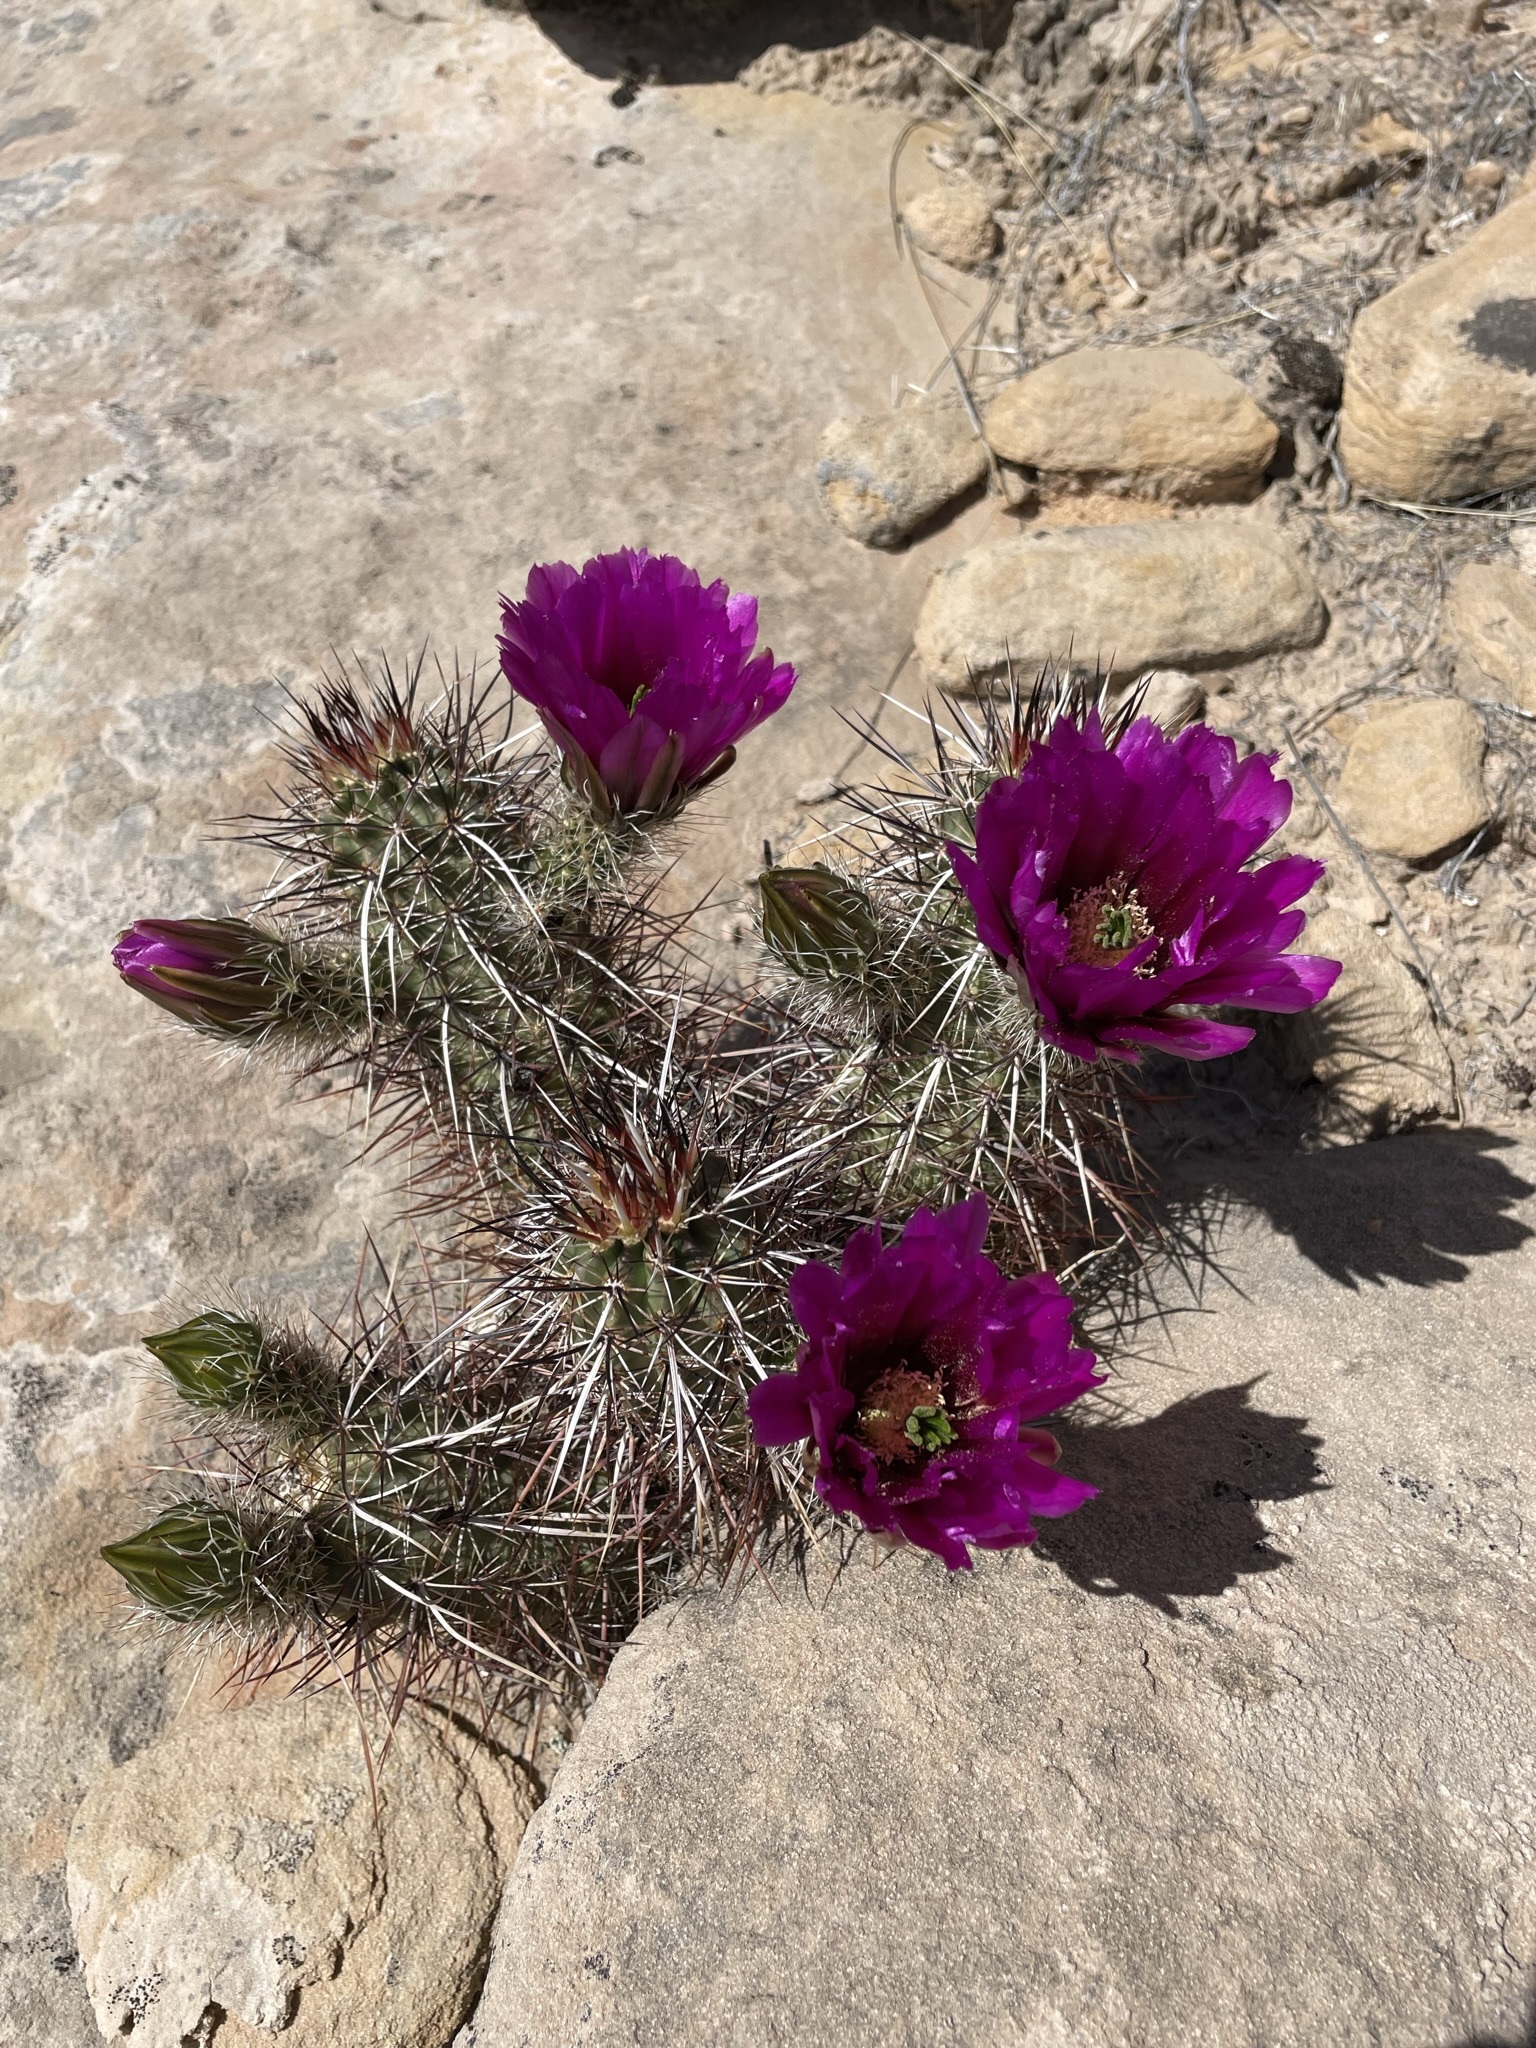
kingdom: Plantae
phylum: Tracheophyta
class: Magnoliopsida
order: Caryophyllales
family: Cactaceae
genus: Echinocereus
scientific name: Echinocereus relictus
